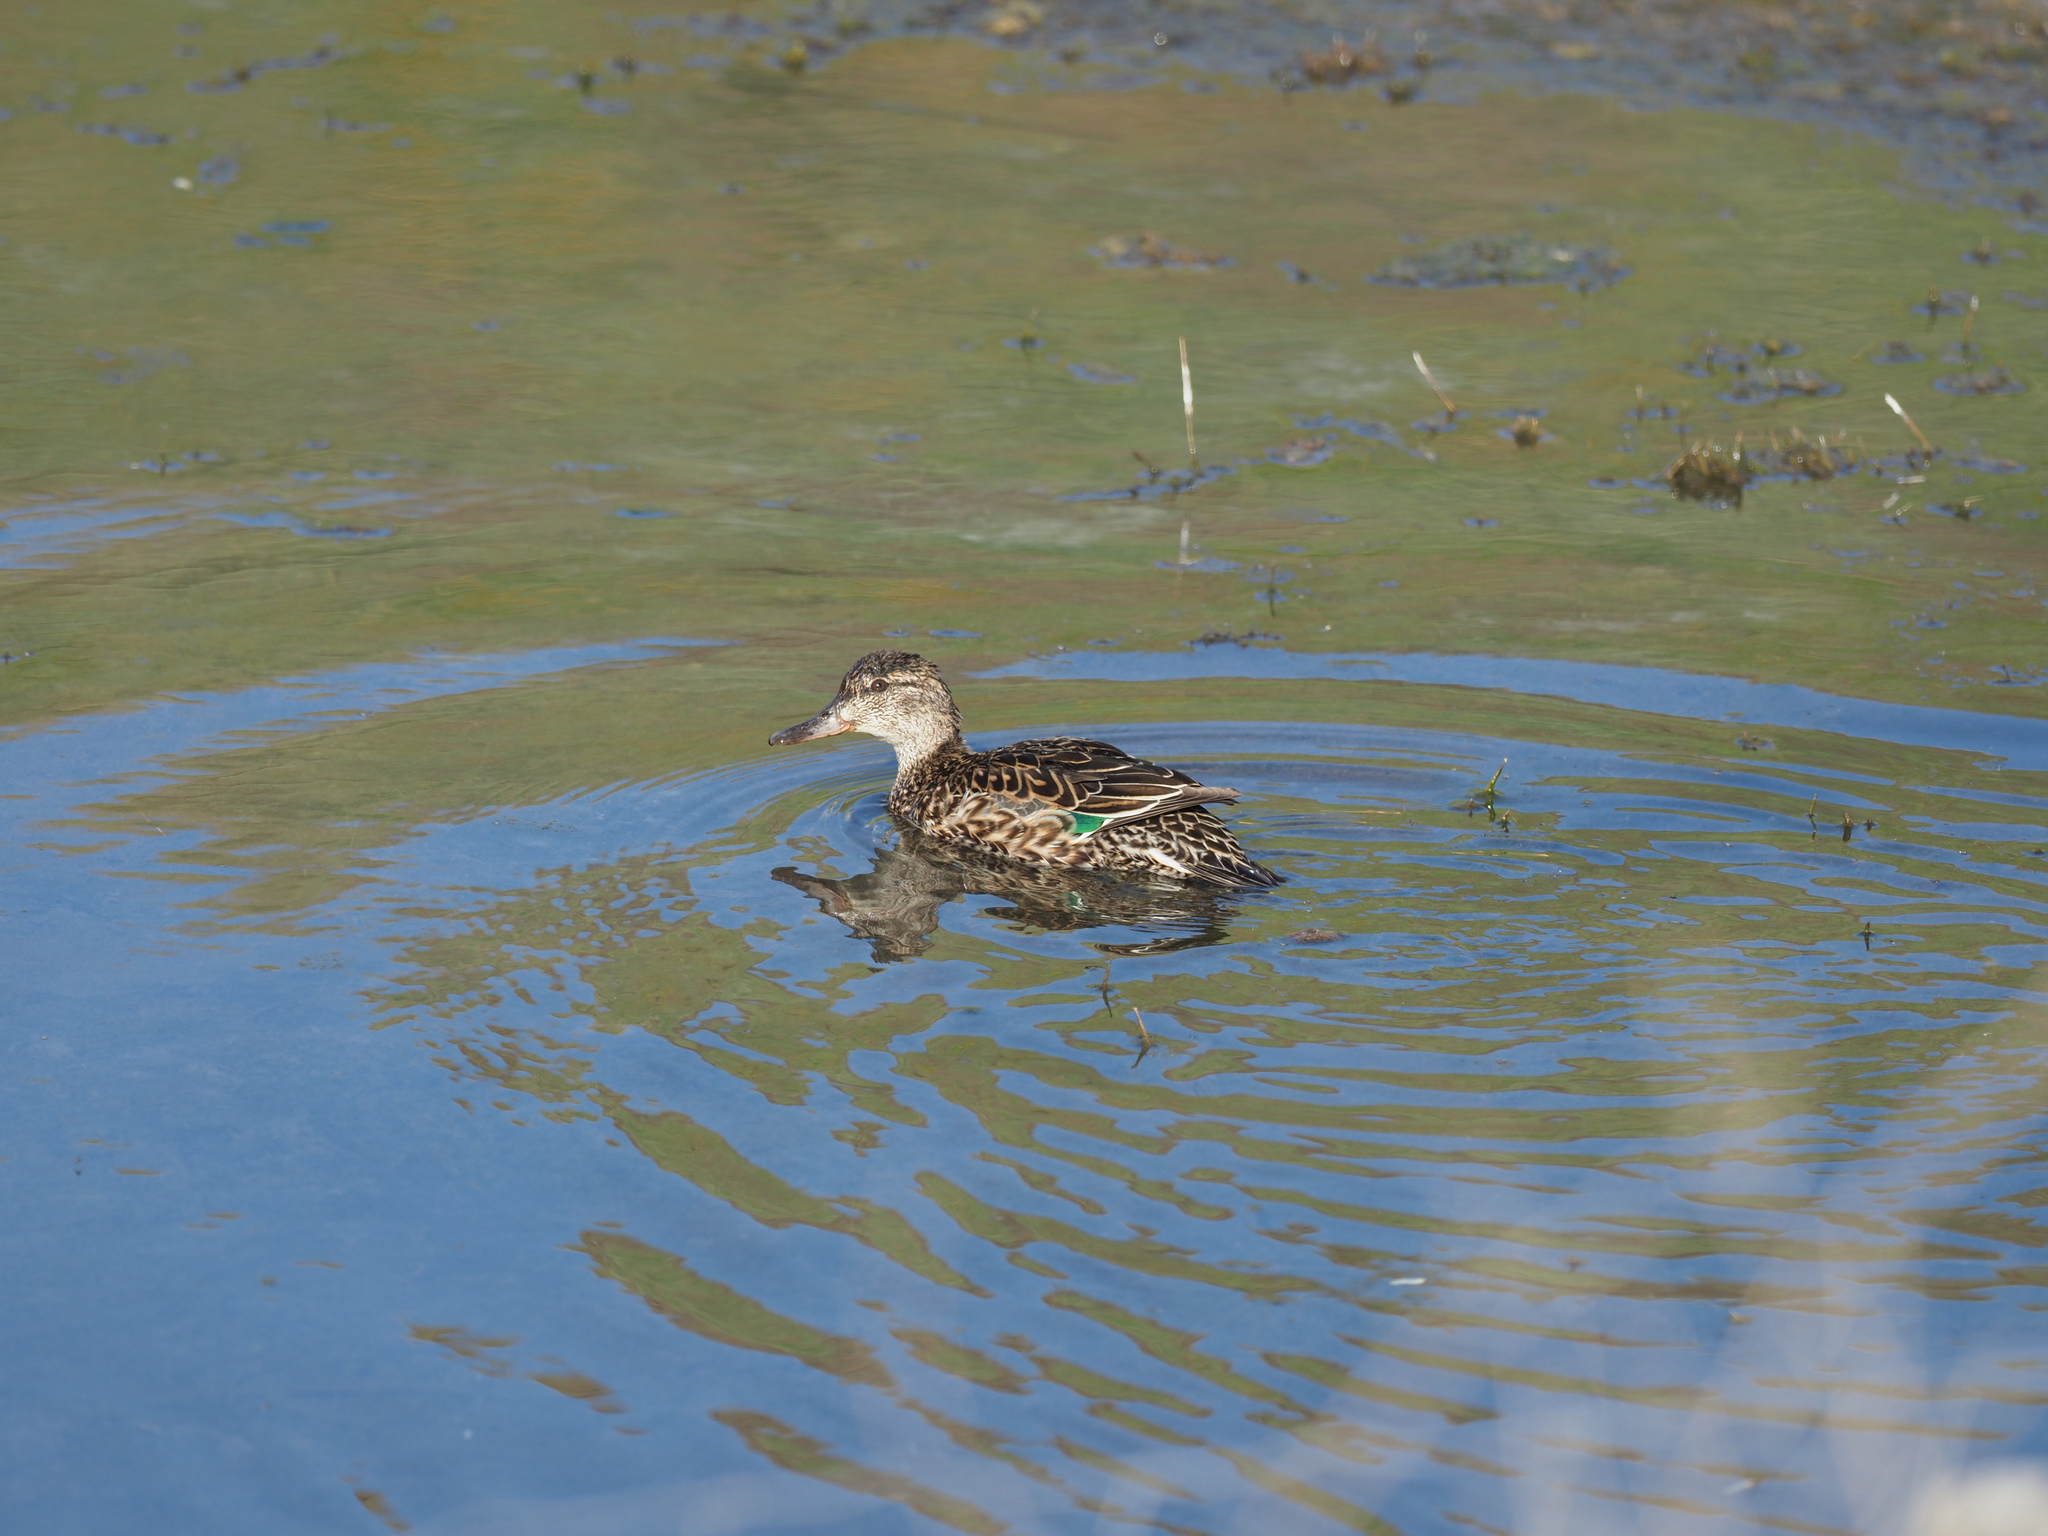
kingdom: Animalia
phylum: Chordata
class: Aves
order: Anseriformes
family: Anatidae
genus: Anas
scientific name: Anas crecca
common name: Eurasian teal
